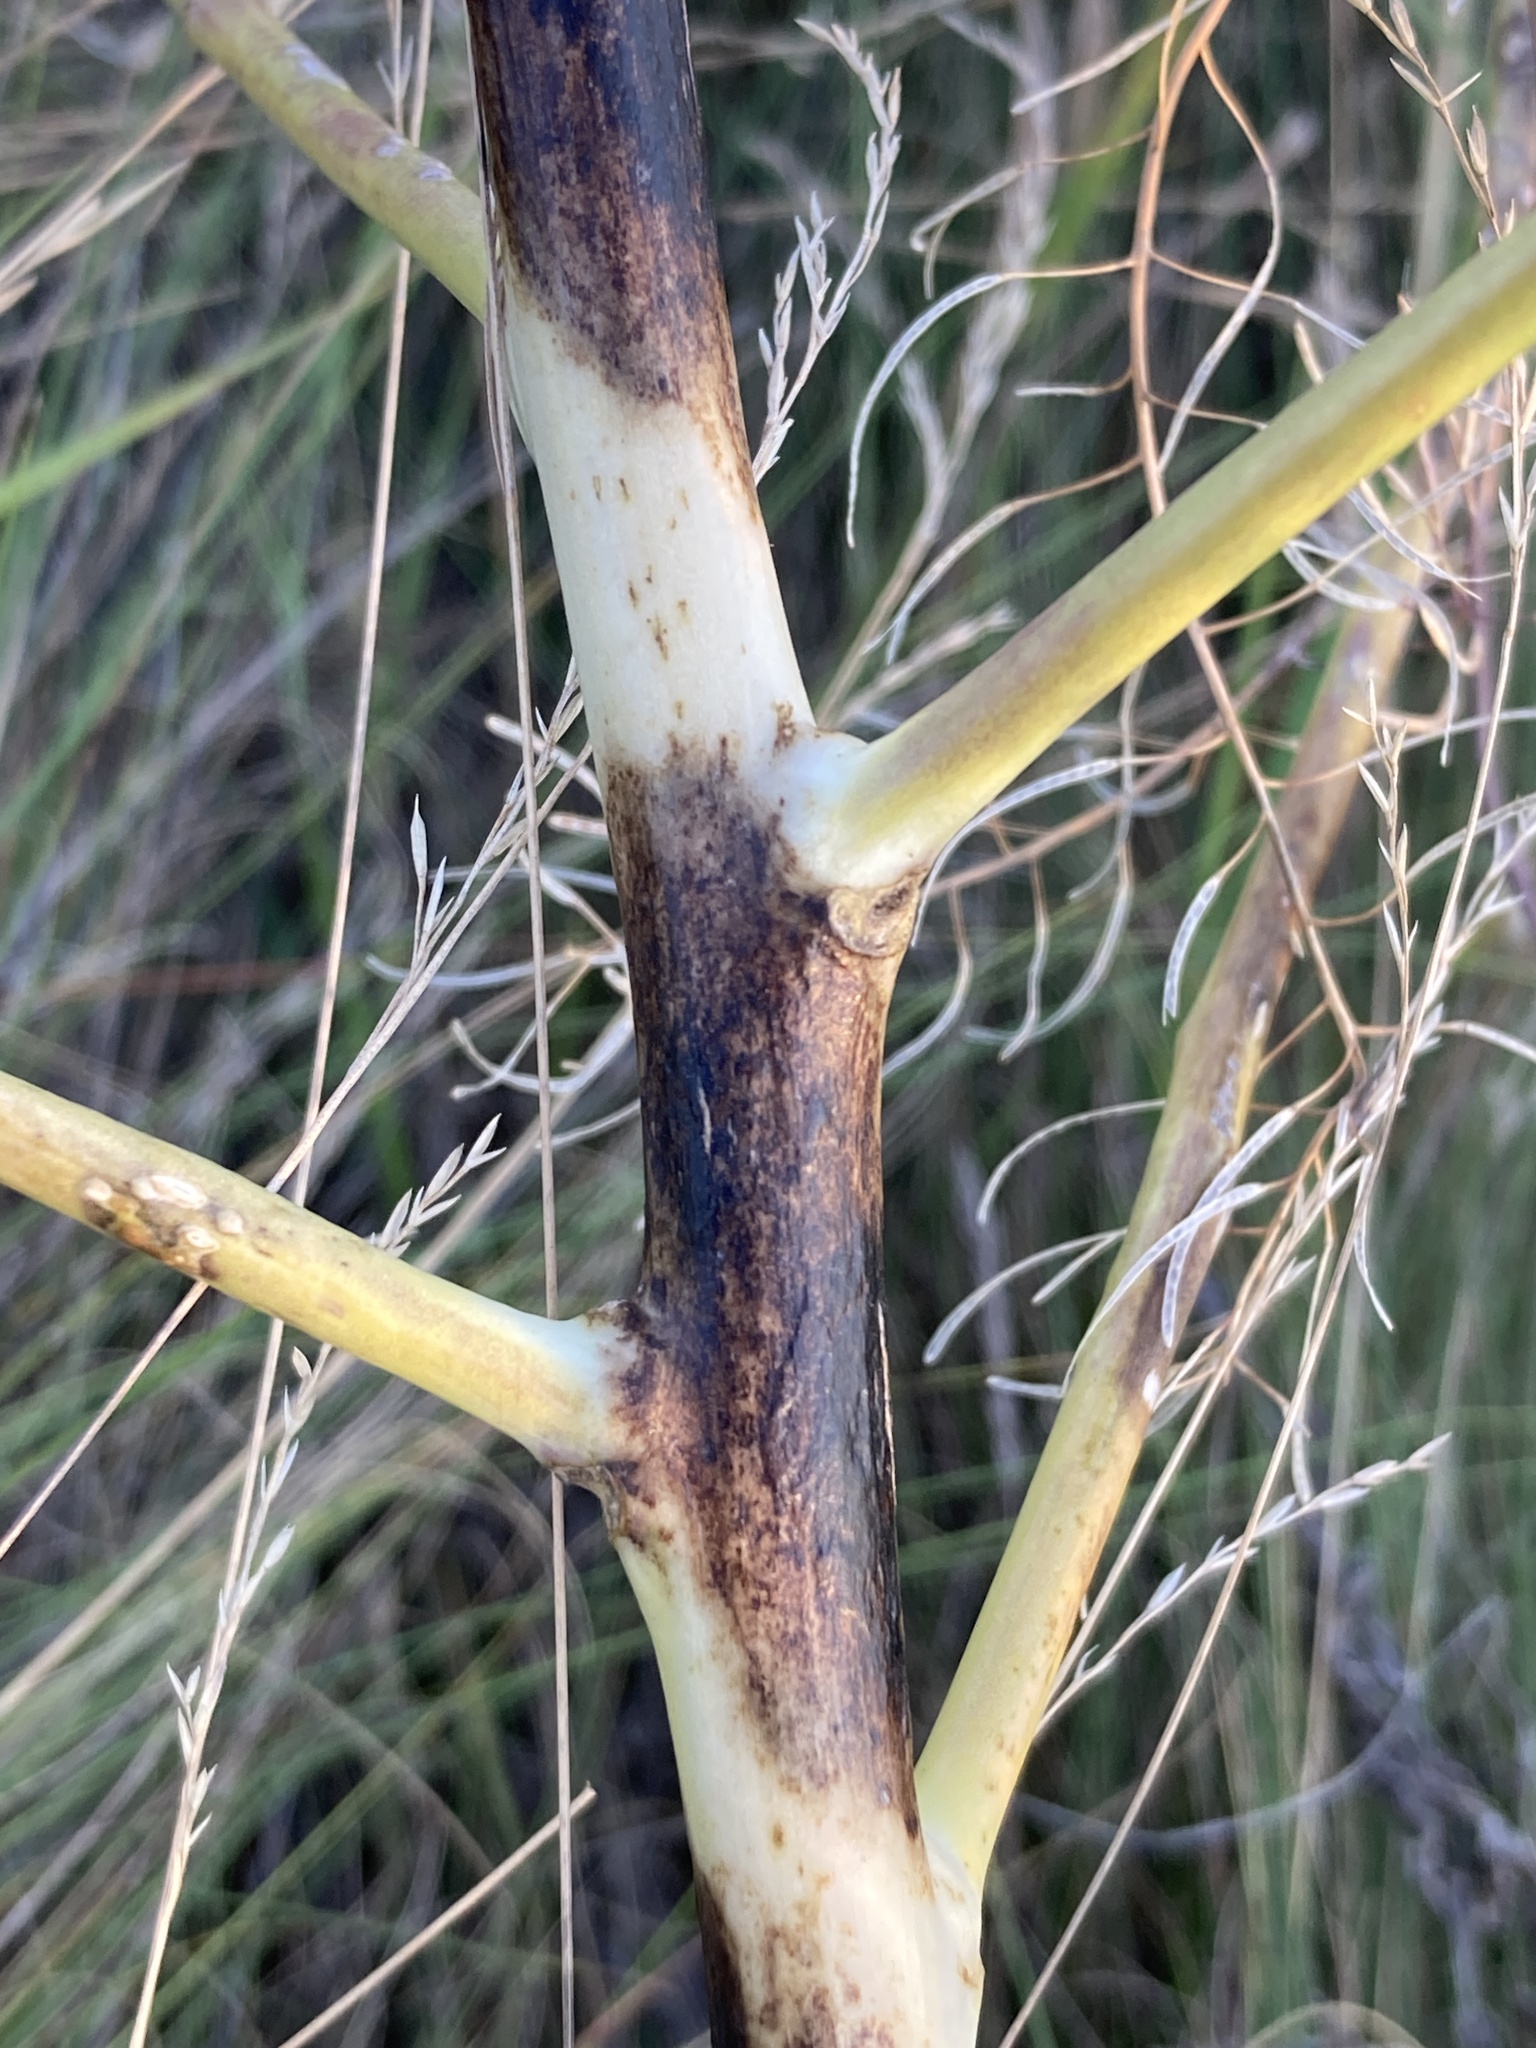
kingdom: Plantae
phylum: Tracheophyta
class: Liliopsida
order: Asparagales
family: Asparagaceae
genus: Asparagus
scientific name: Asparagus officinalis
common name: Garden asparagus
